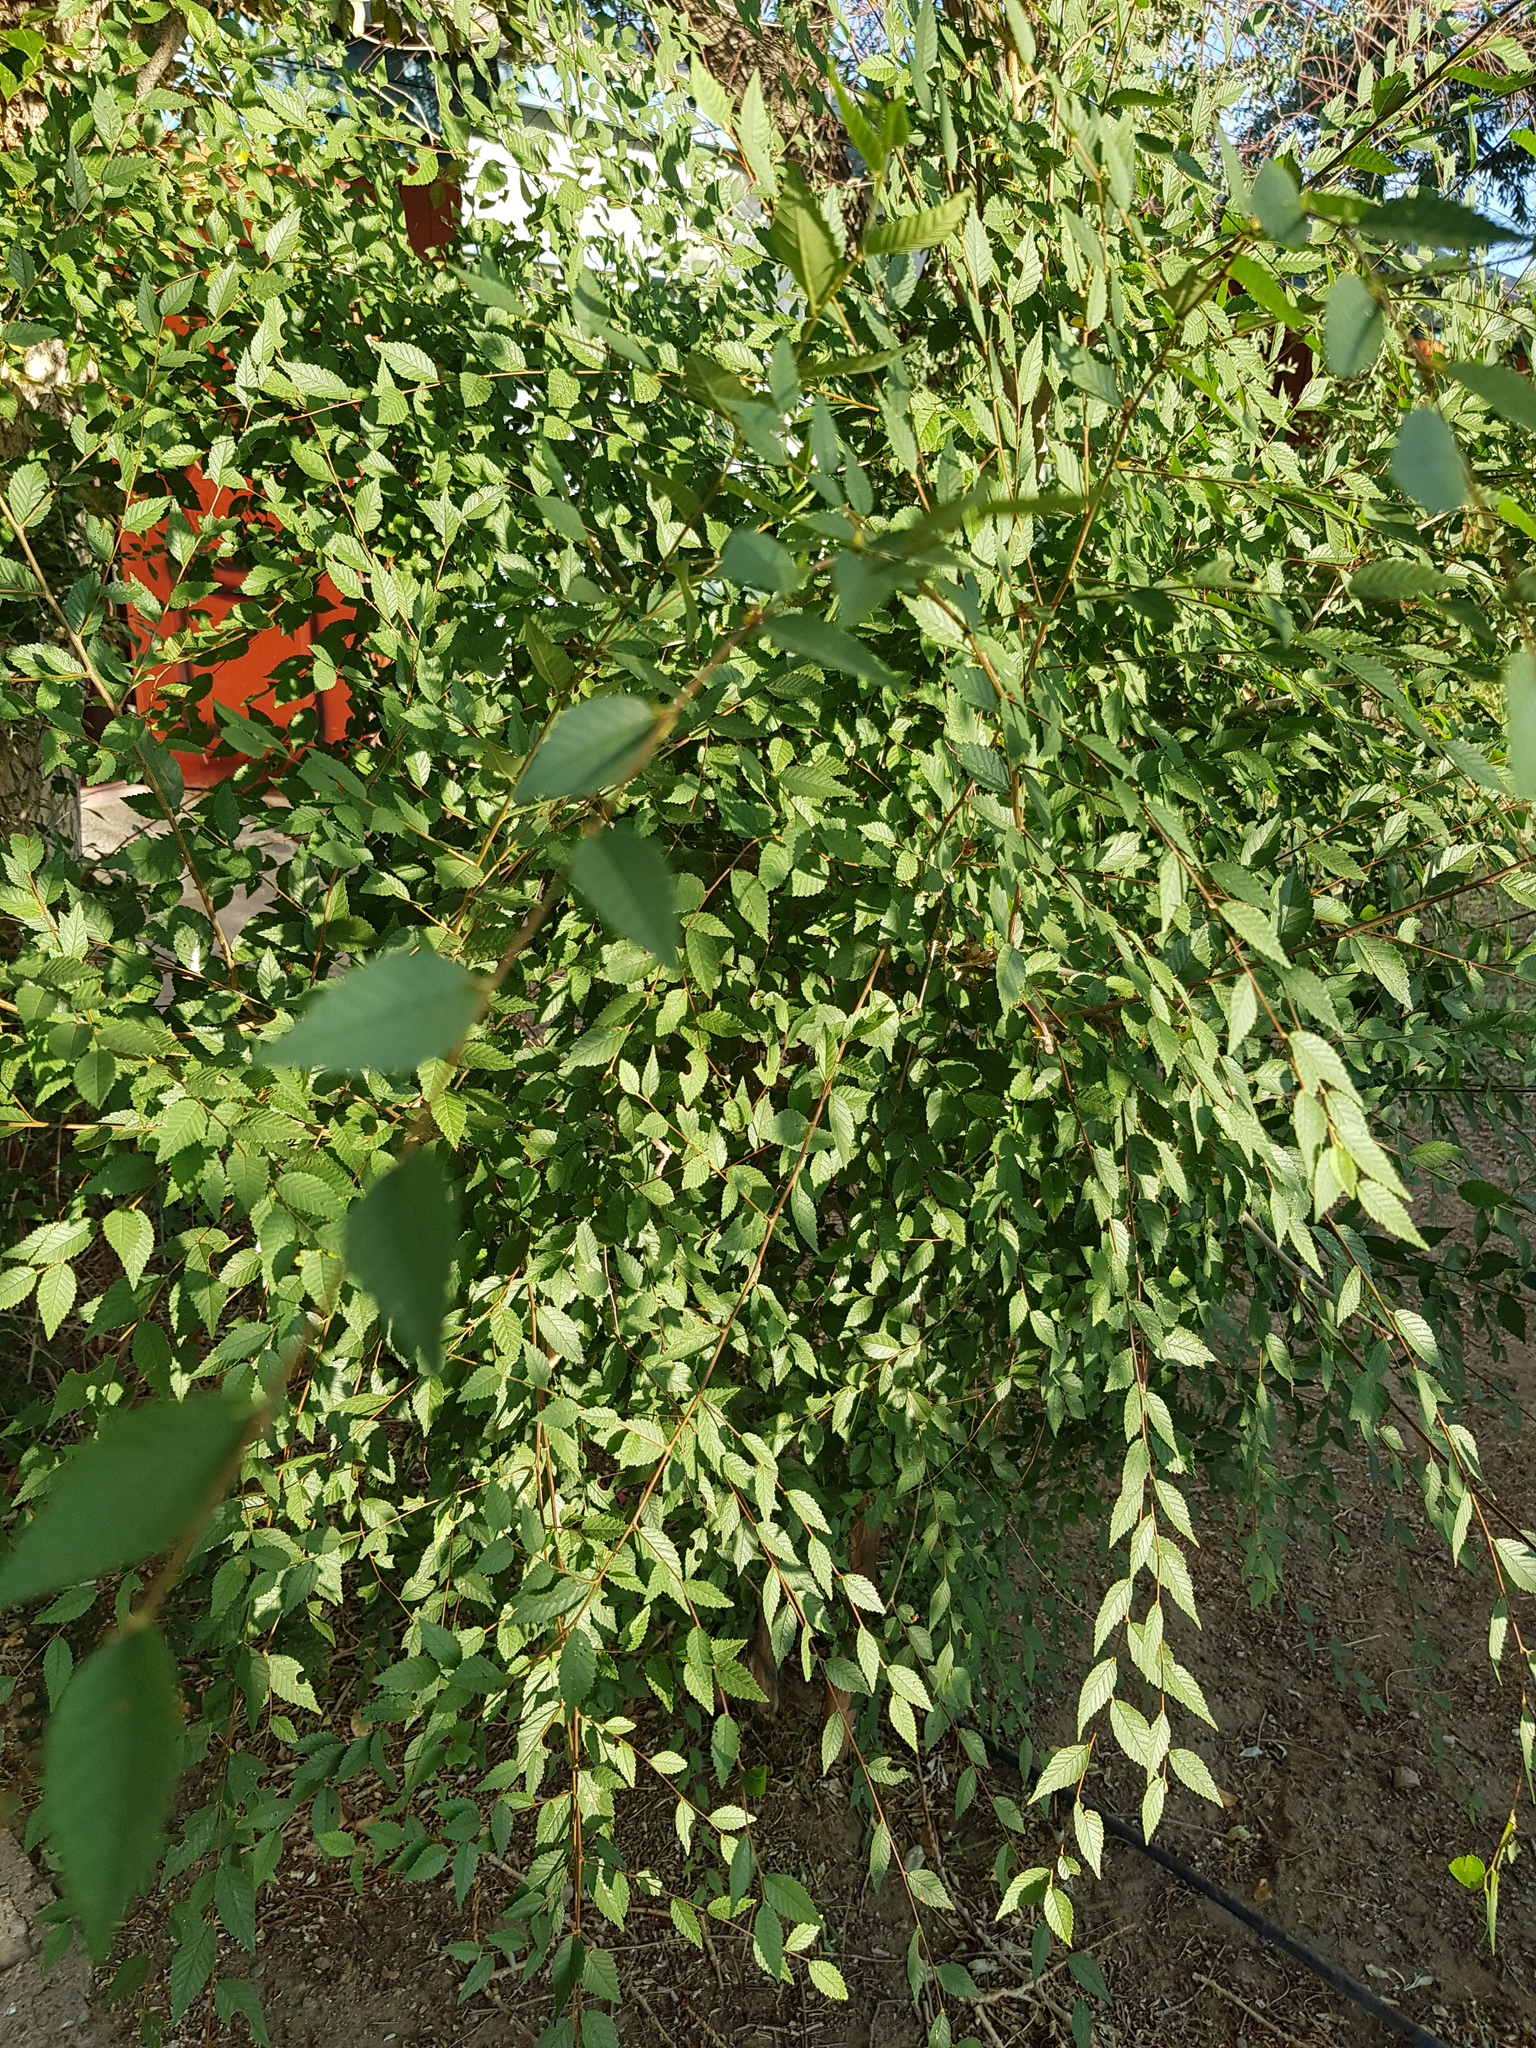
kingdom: Plantae
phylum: Tracheophyta
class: Magnoliopsida
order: Rosales
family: Ulmaceae
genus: Ulmus
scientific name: Ulmus pumila
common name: Siberian elm
